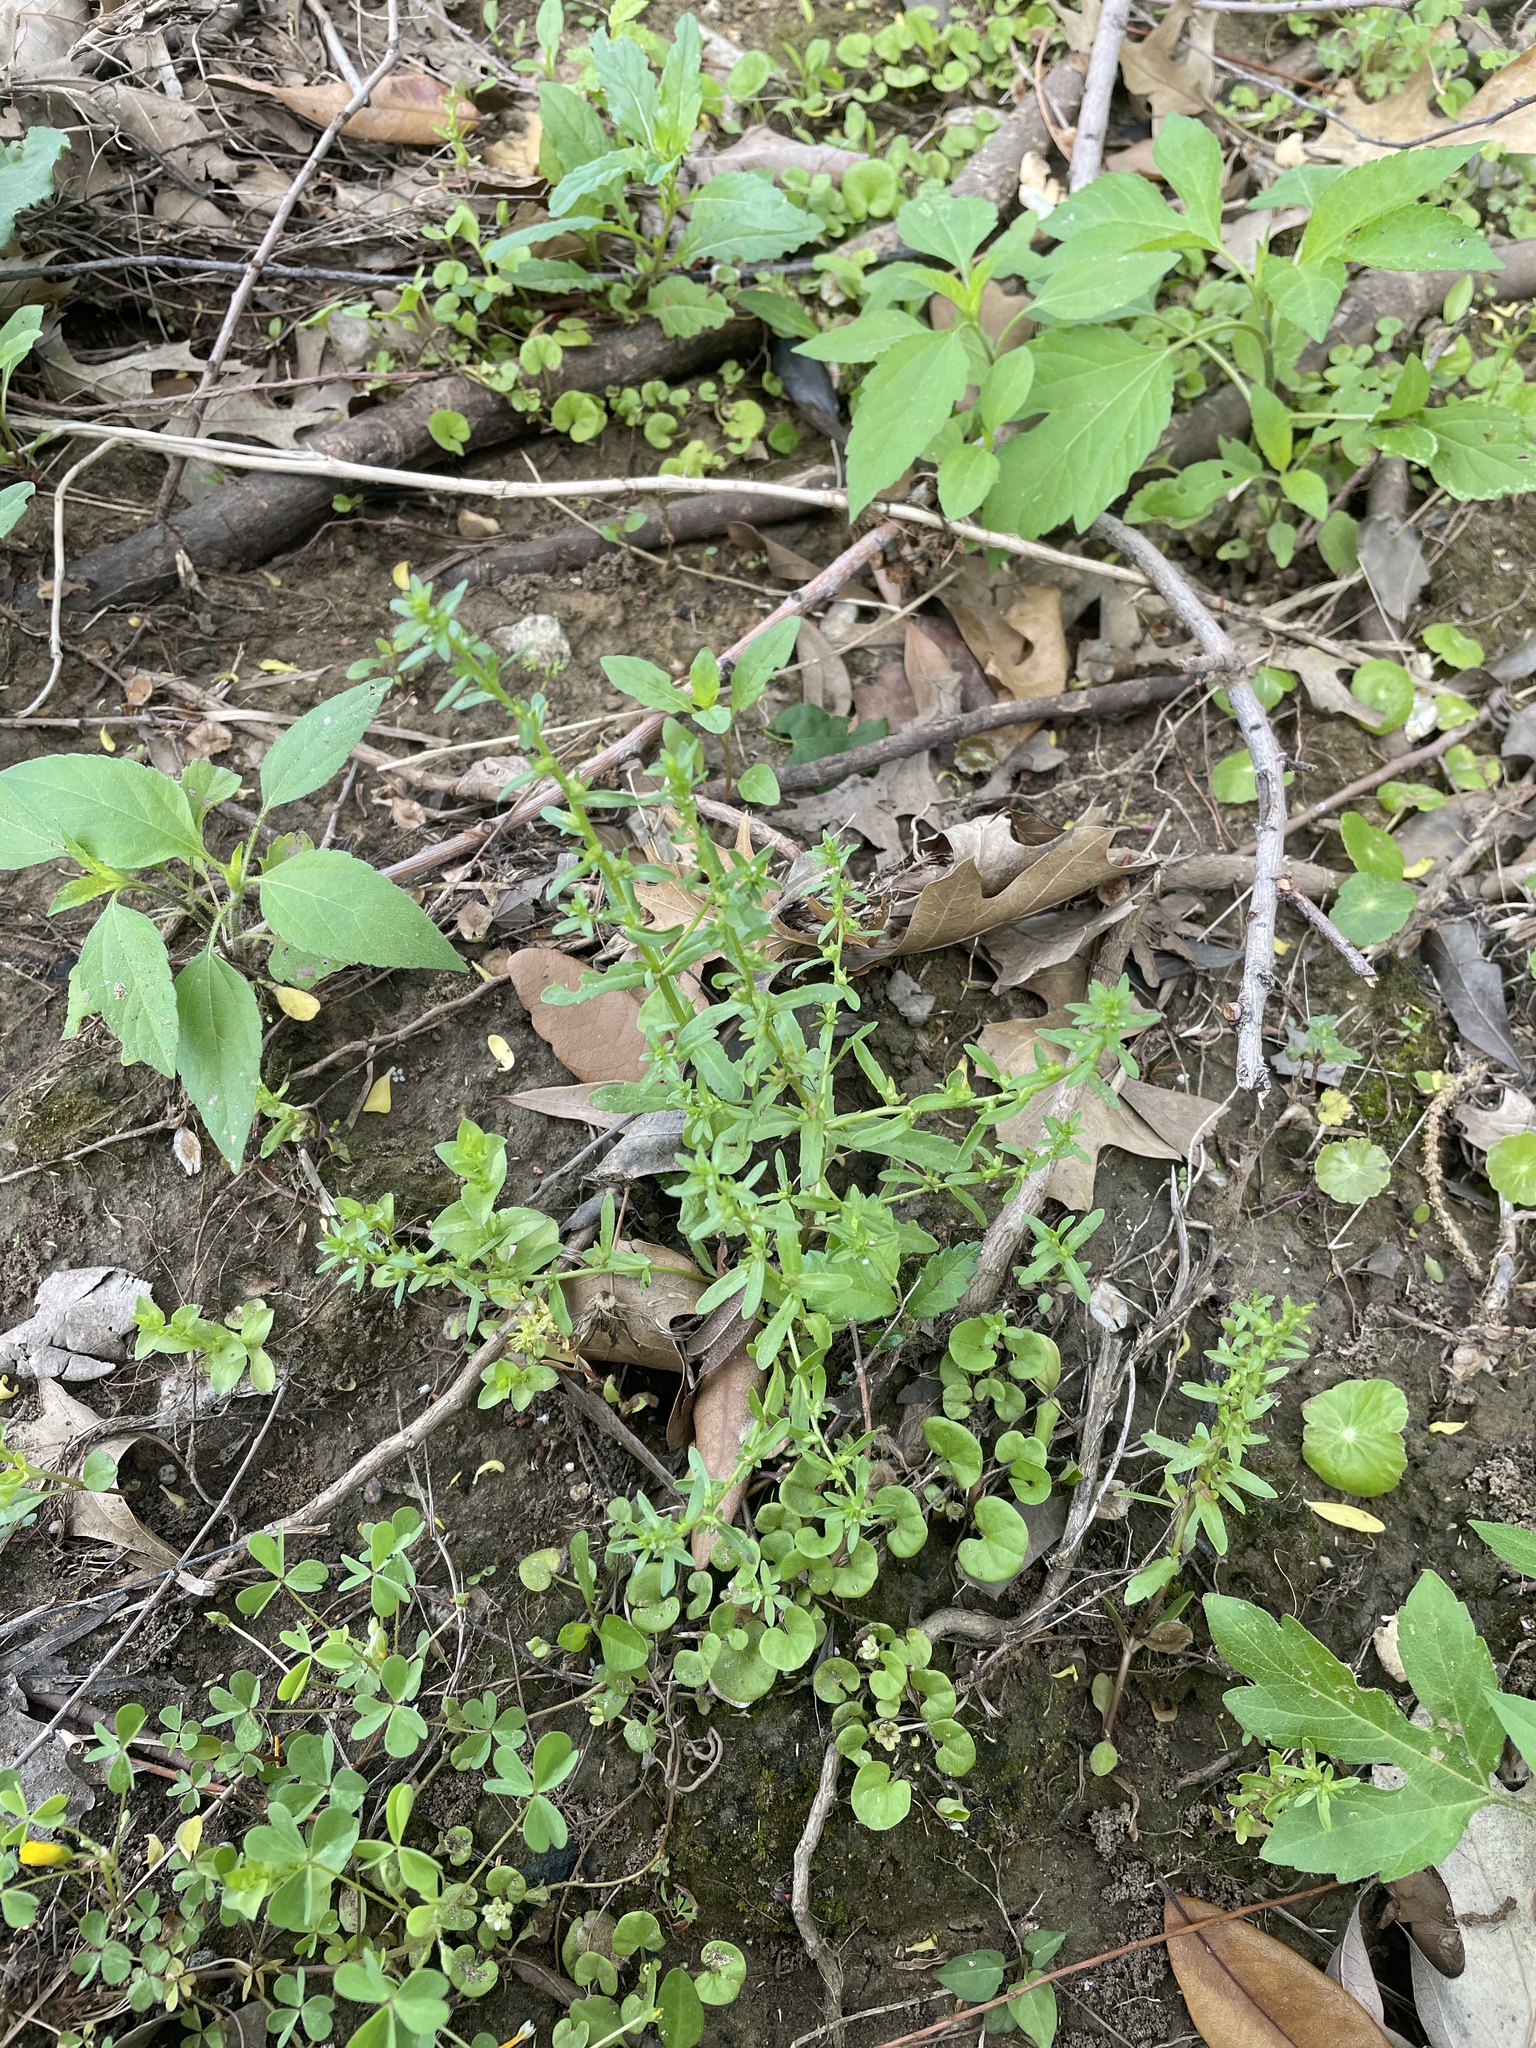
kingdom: Plantae
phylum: Tracheophyta
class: Magnoliopsida
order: Lamiales
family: Plantaginaceae
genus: Veronica
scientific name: Veronica peregrina
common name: Neckweed
